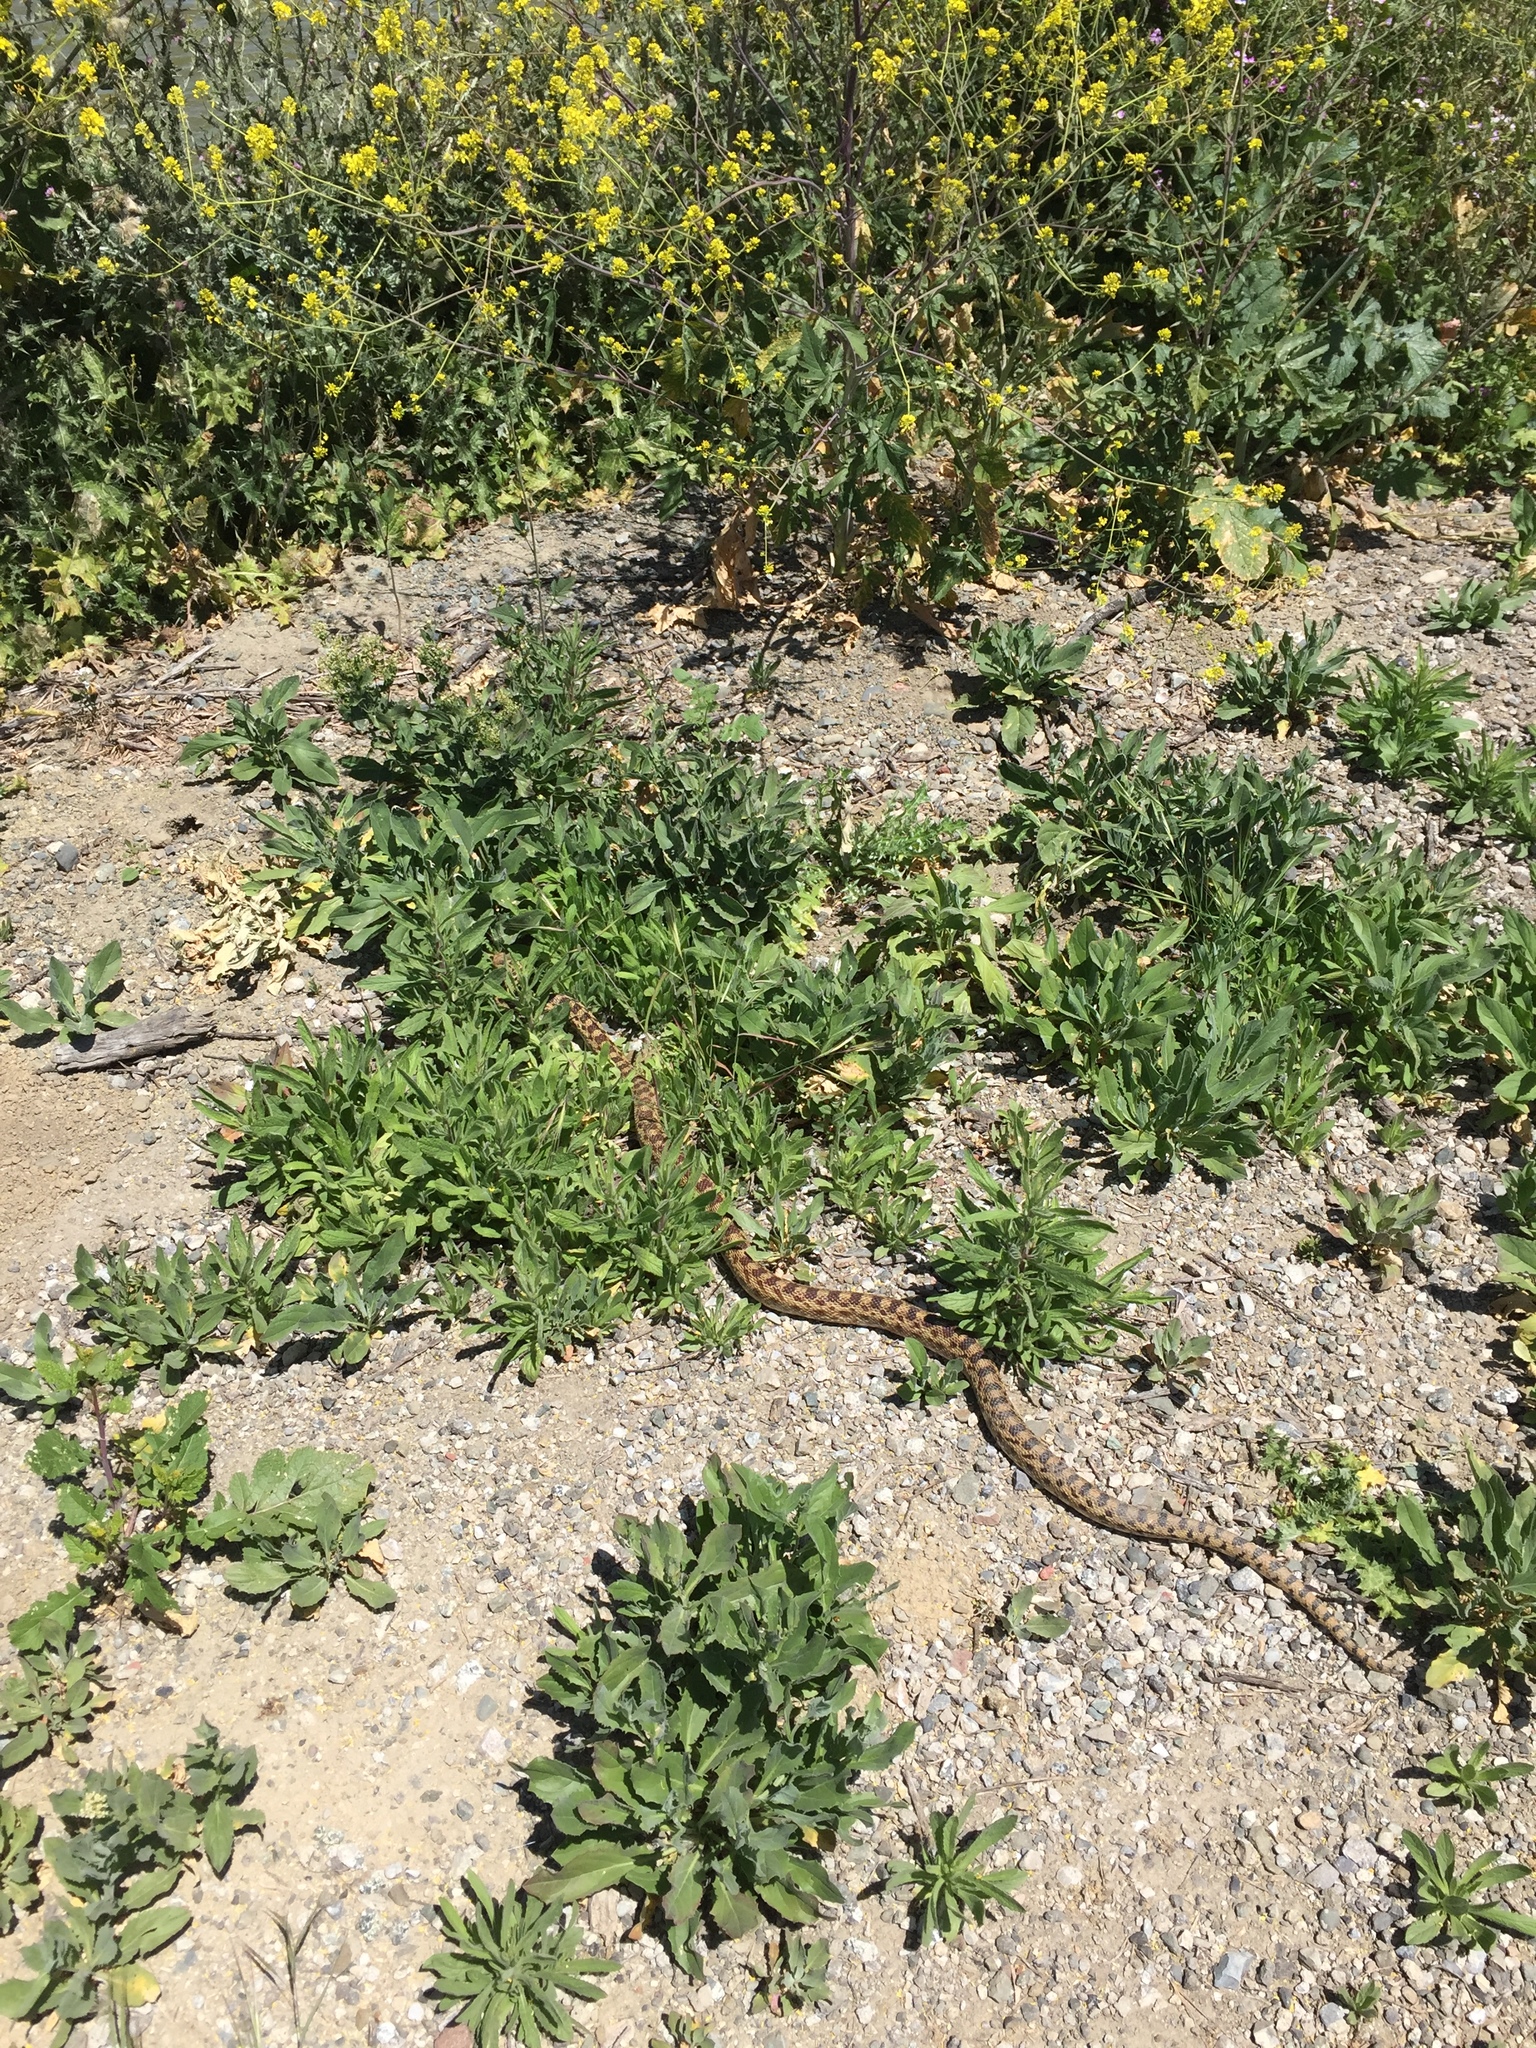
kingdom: Animalia
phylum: Chordata
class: Squamata
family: Colubridae
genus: Pituophis
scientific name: Pituophis catenifer
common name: Gopher snake
